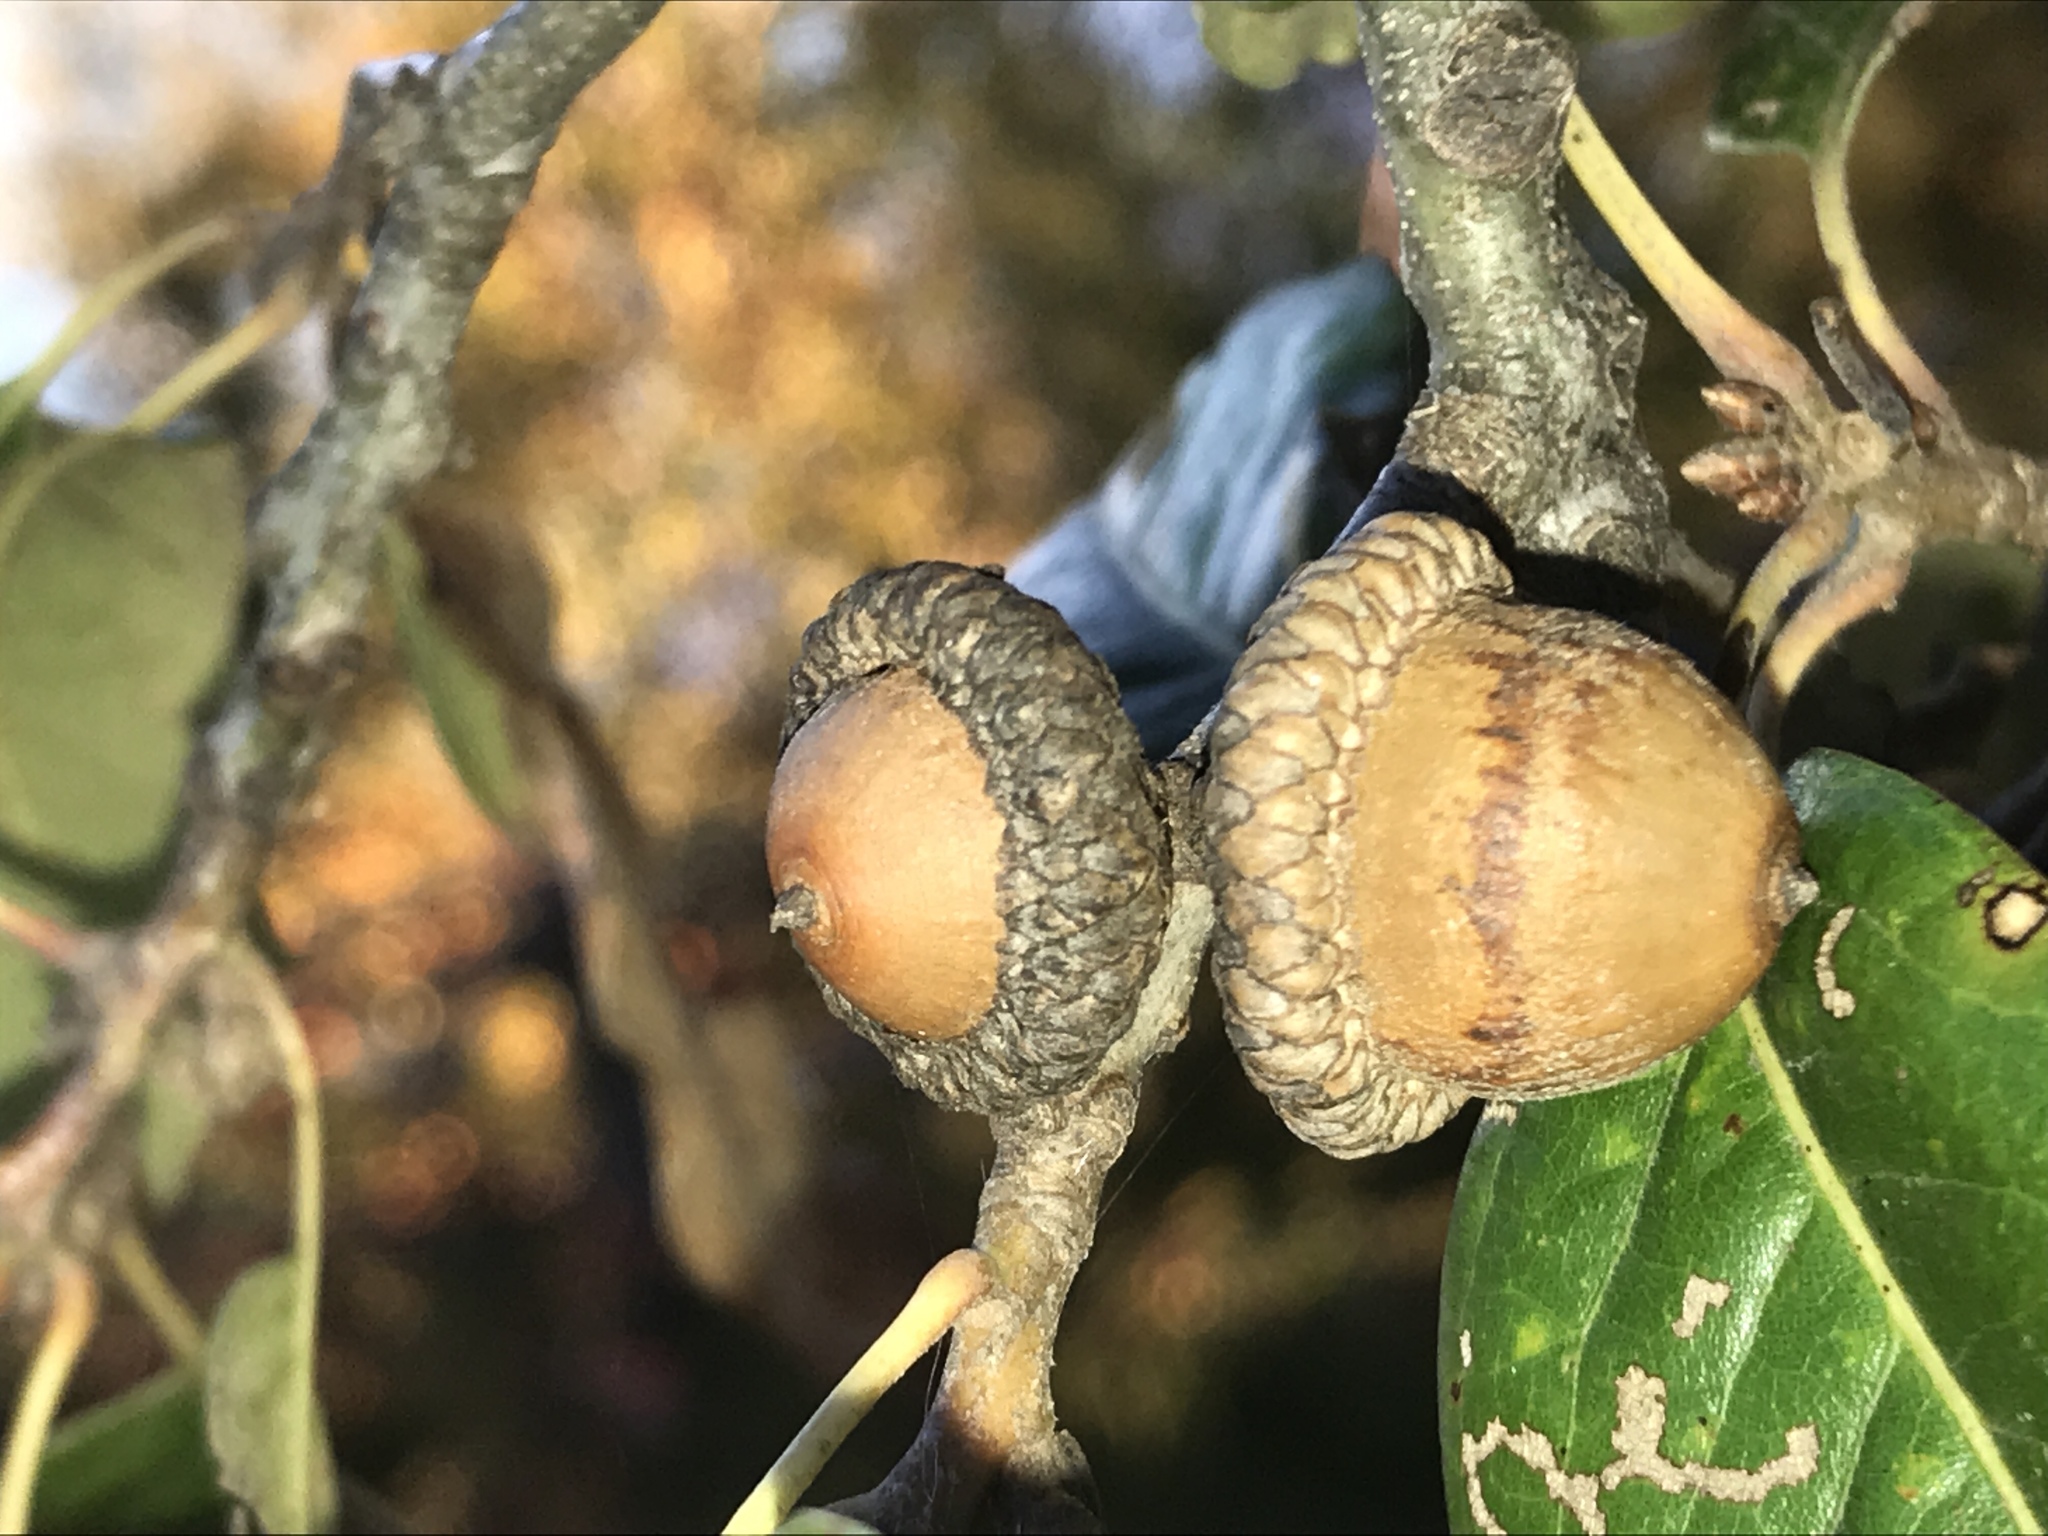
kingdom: Plantae
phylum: Tracheophyta
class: Magnoliopsida
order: Fagales
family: Fagaceae
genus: Quercus
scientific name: Quercus imbricaria
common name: Shingle oak
